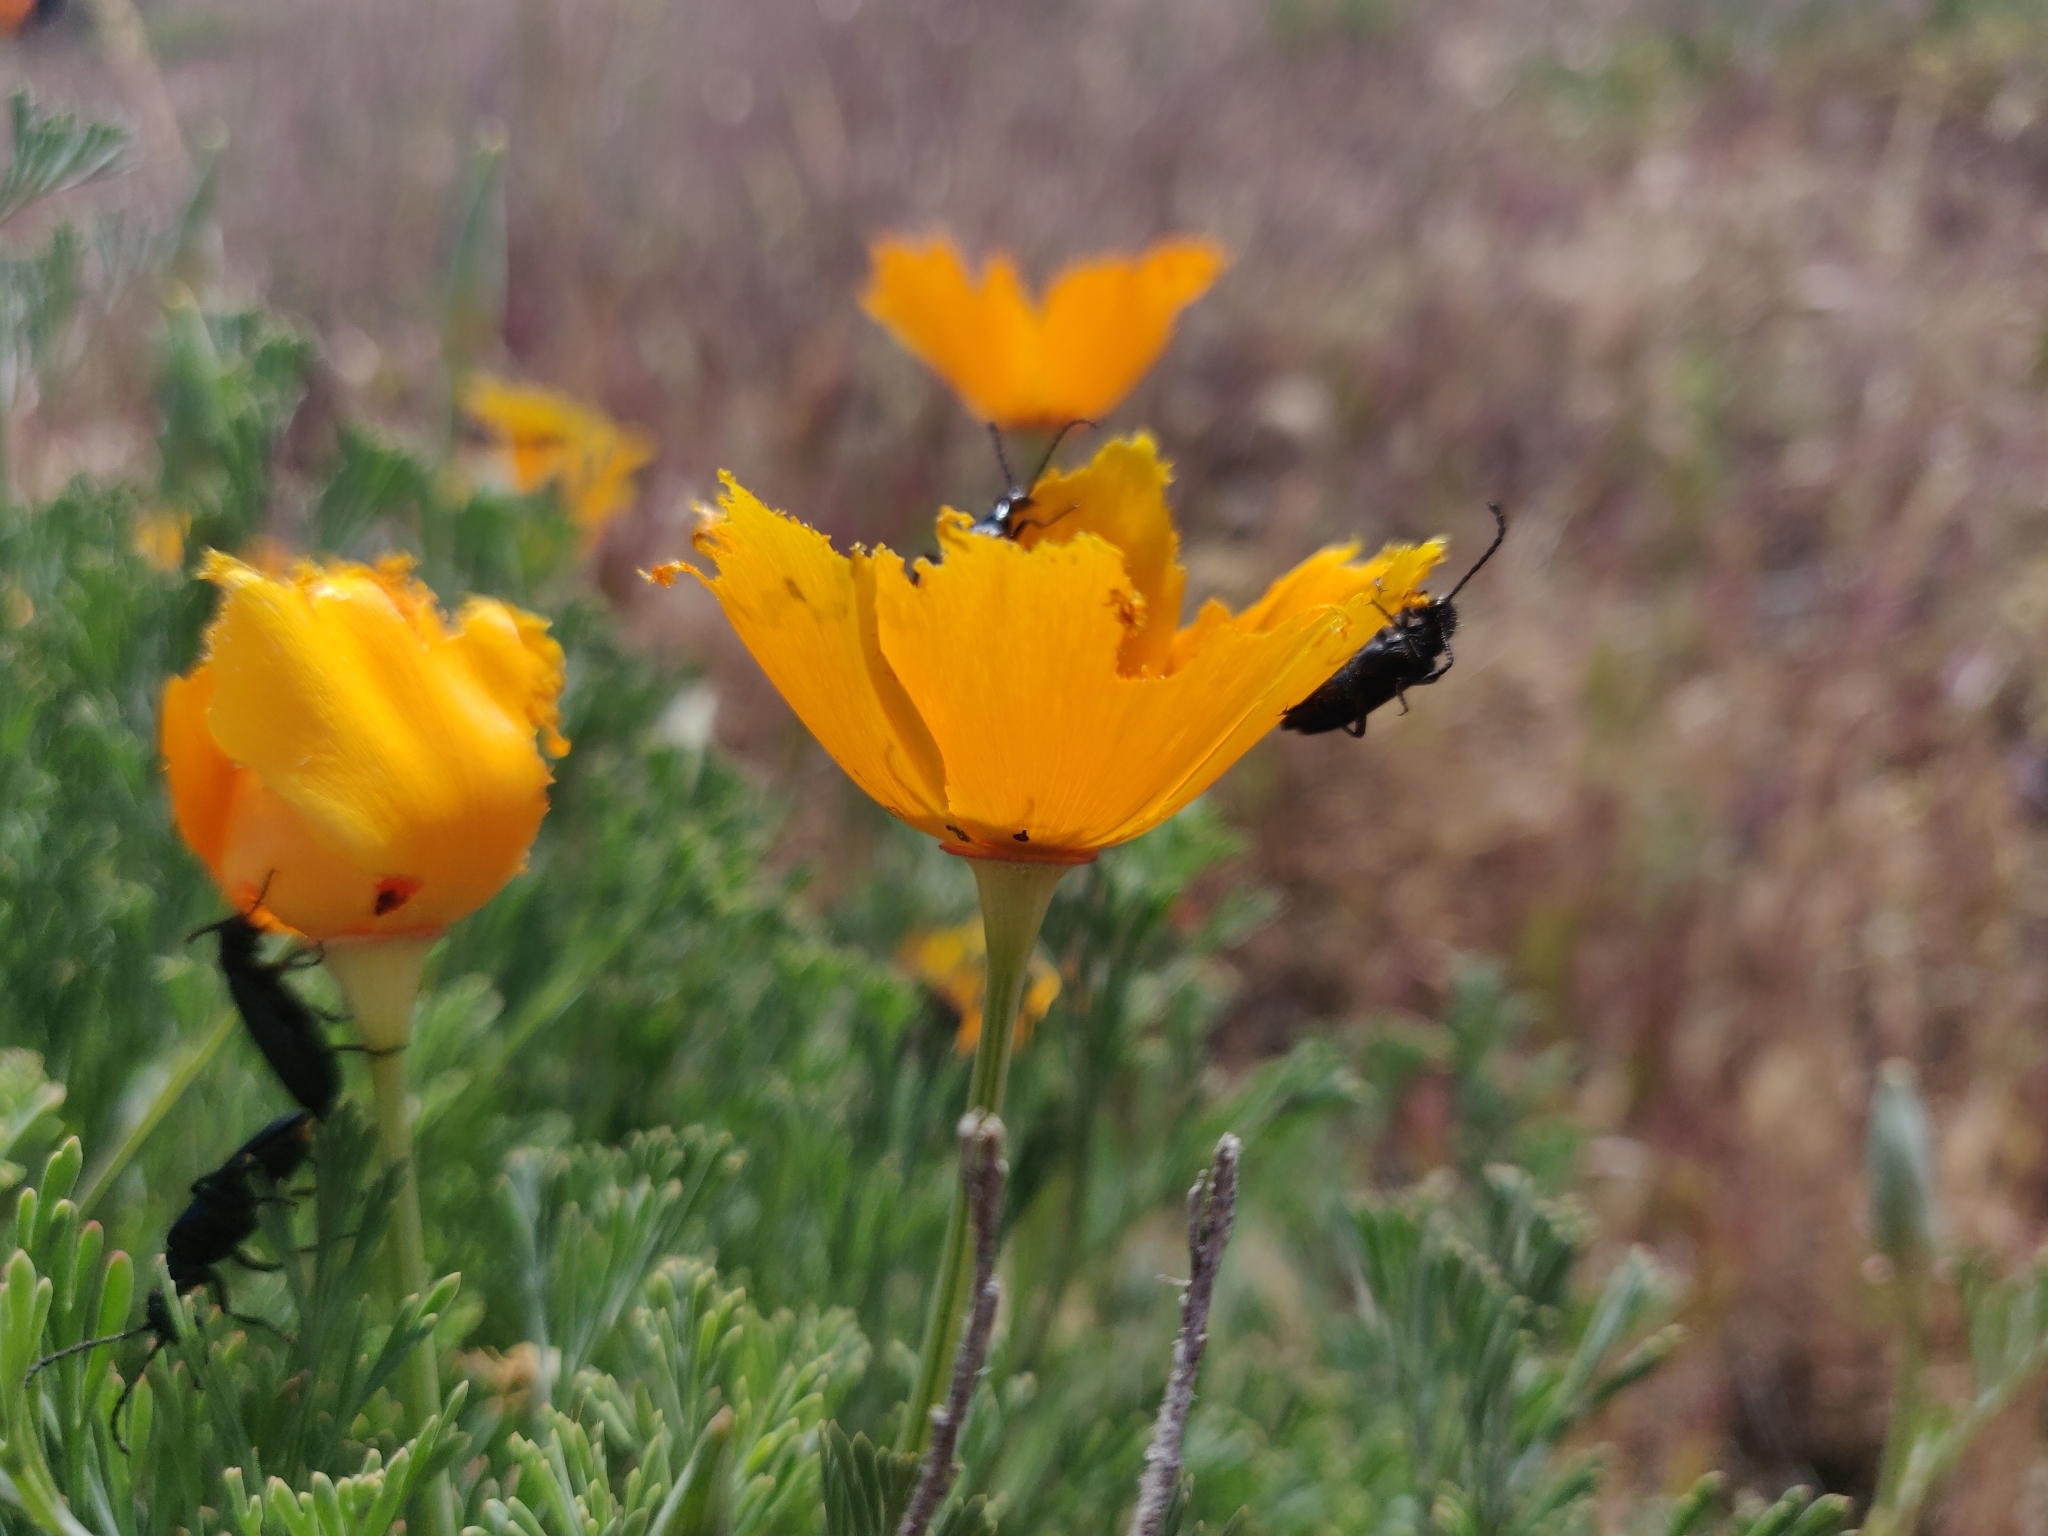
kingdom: Plantae
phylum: Tracheophyta
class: Magnoliopsida
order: Ranunculales
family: Papaveraceae
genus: Eschscholzia
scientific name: Eschscholzia californica
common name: California poppy
